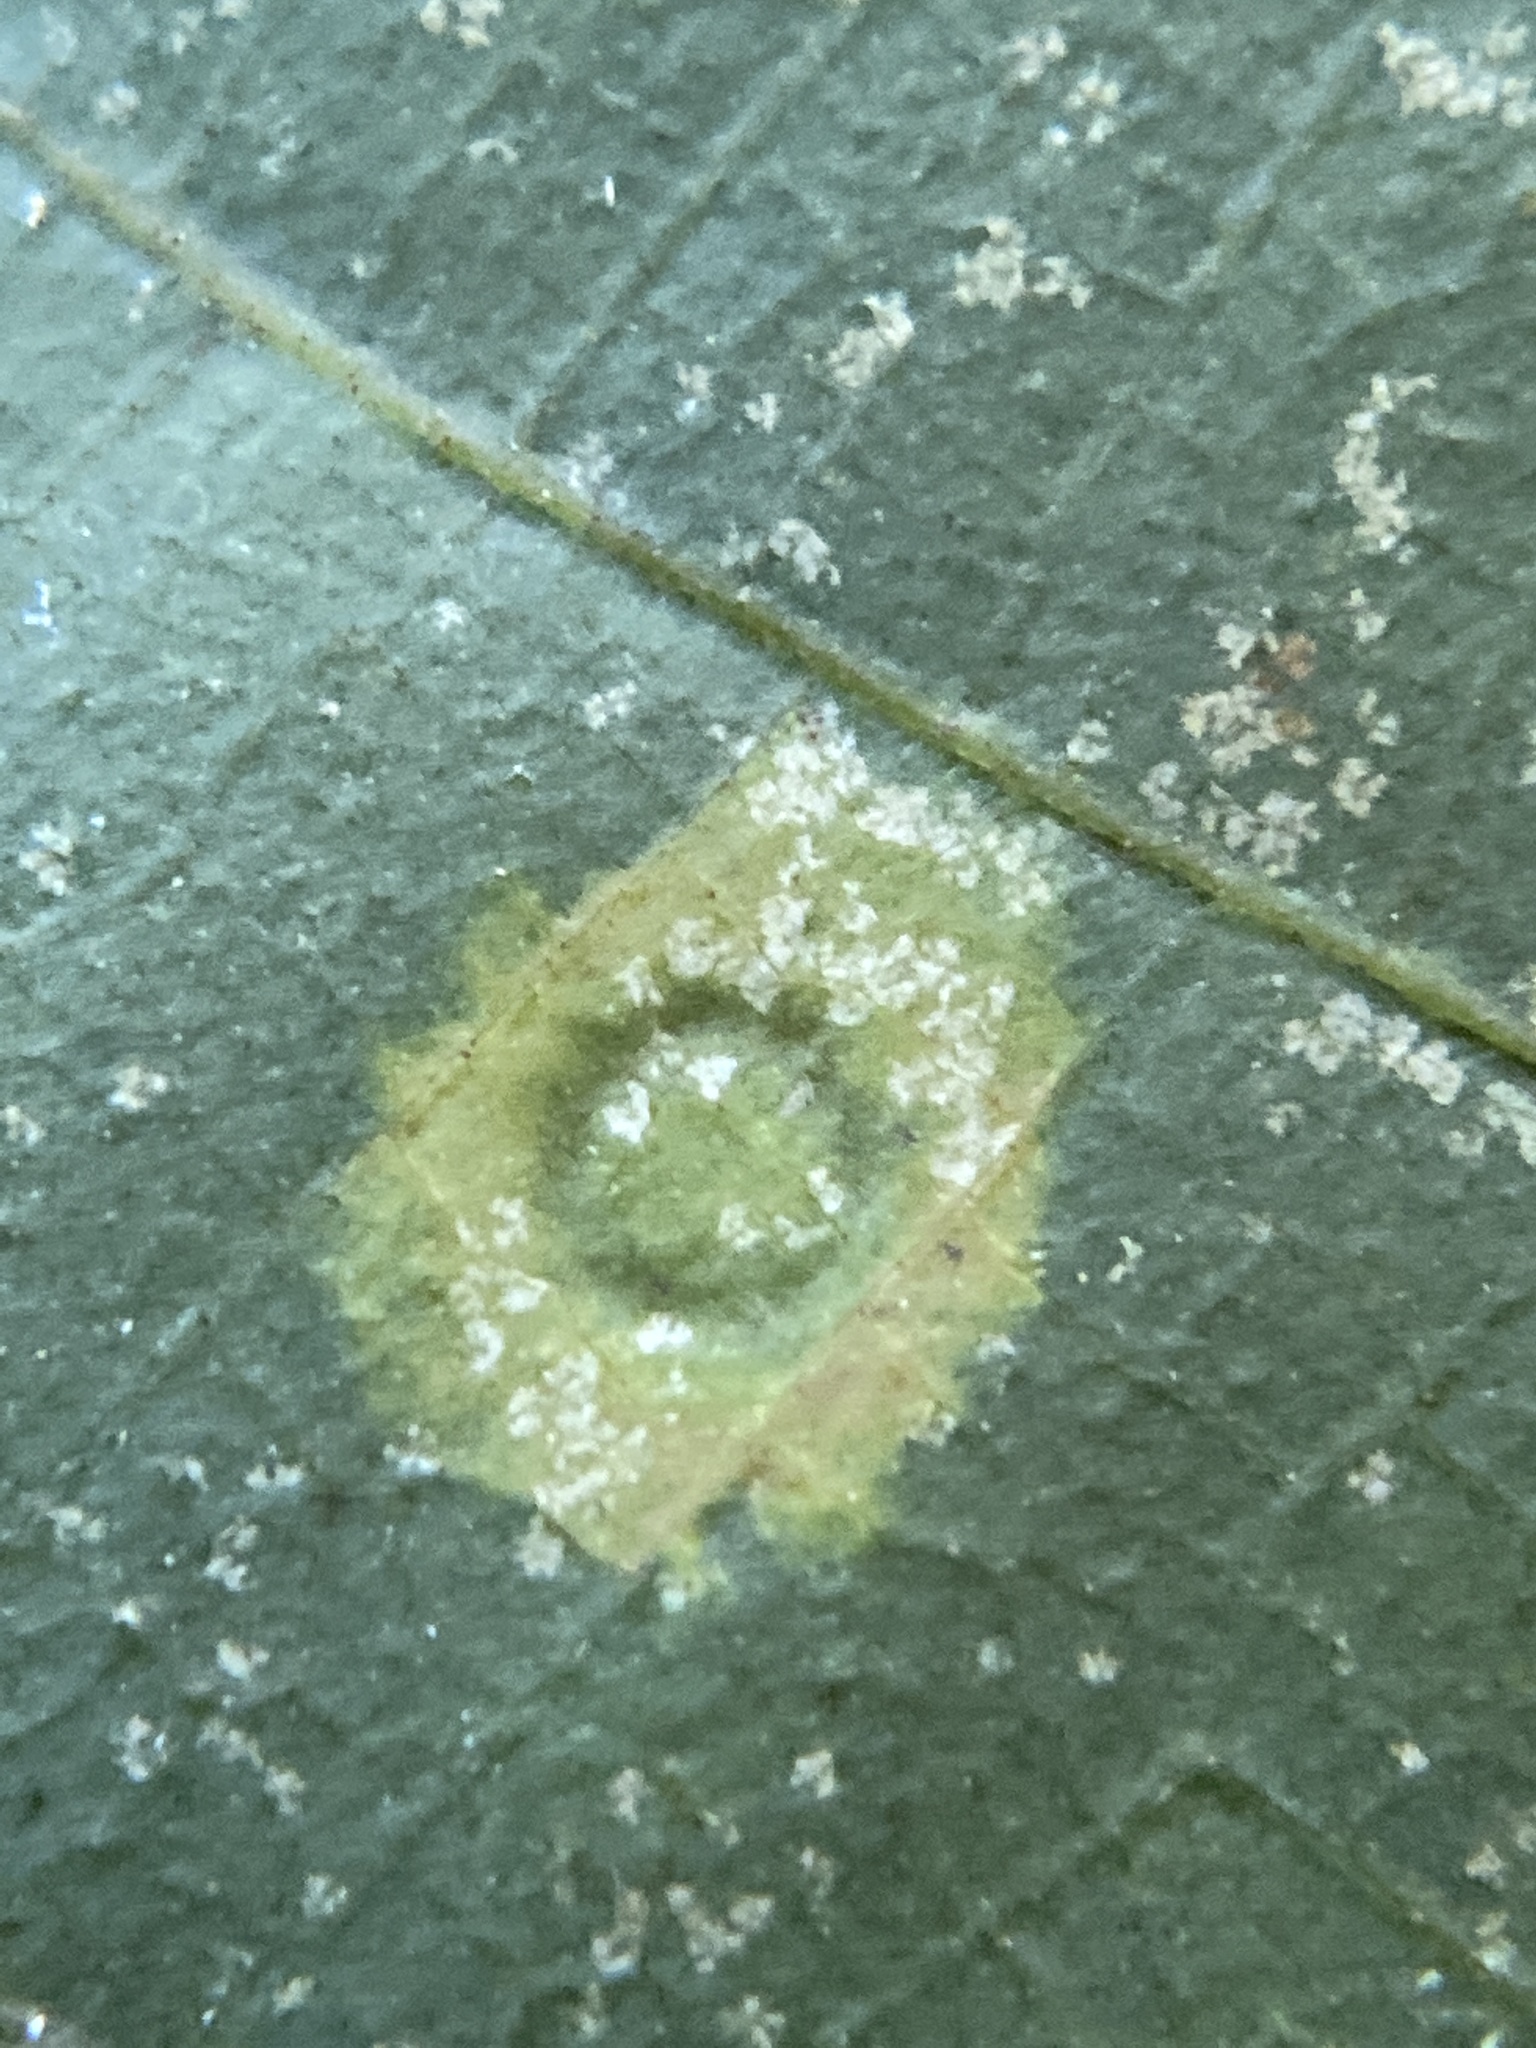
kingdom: Animalia
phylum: Arthropoda
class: Insecta
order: Diptera
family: Cecidomyiidae
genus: Gliaspilota
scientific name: Gliaspilota glutinosa
